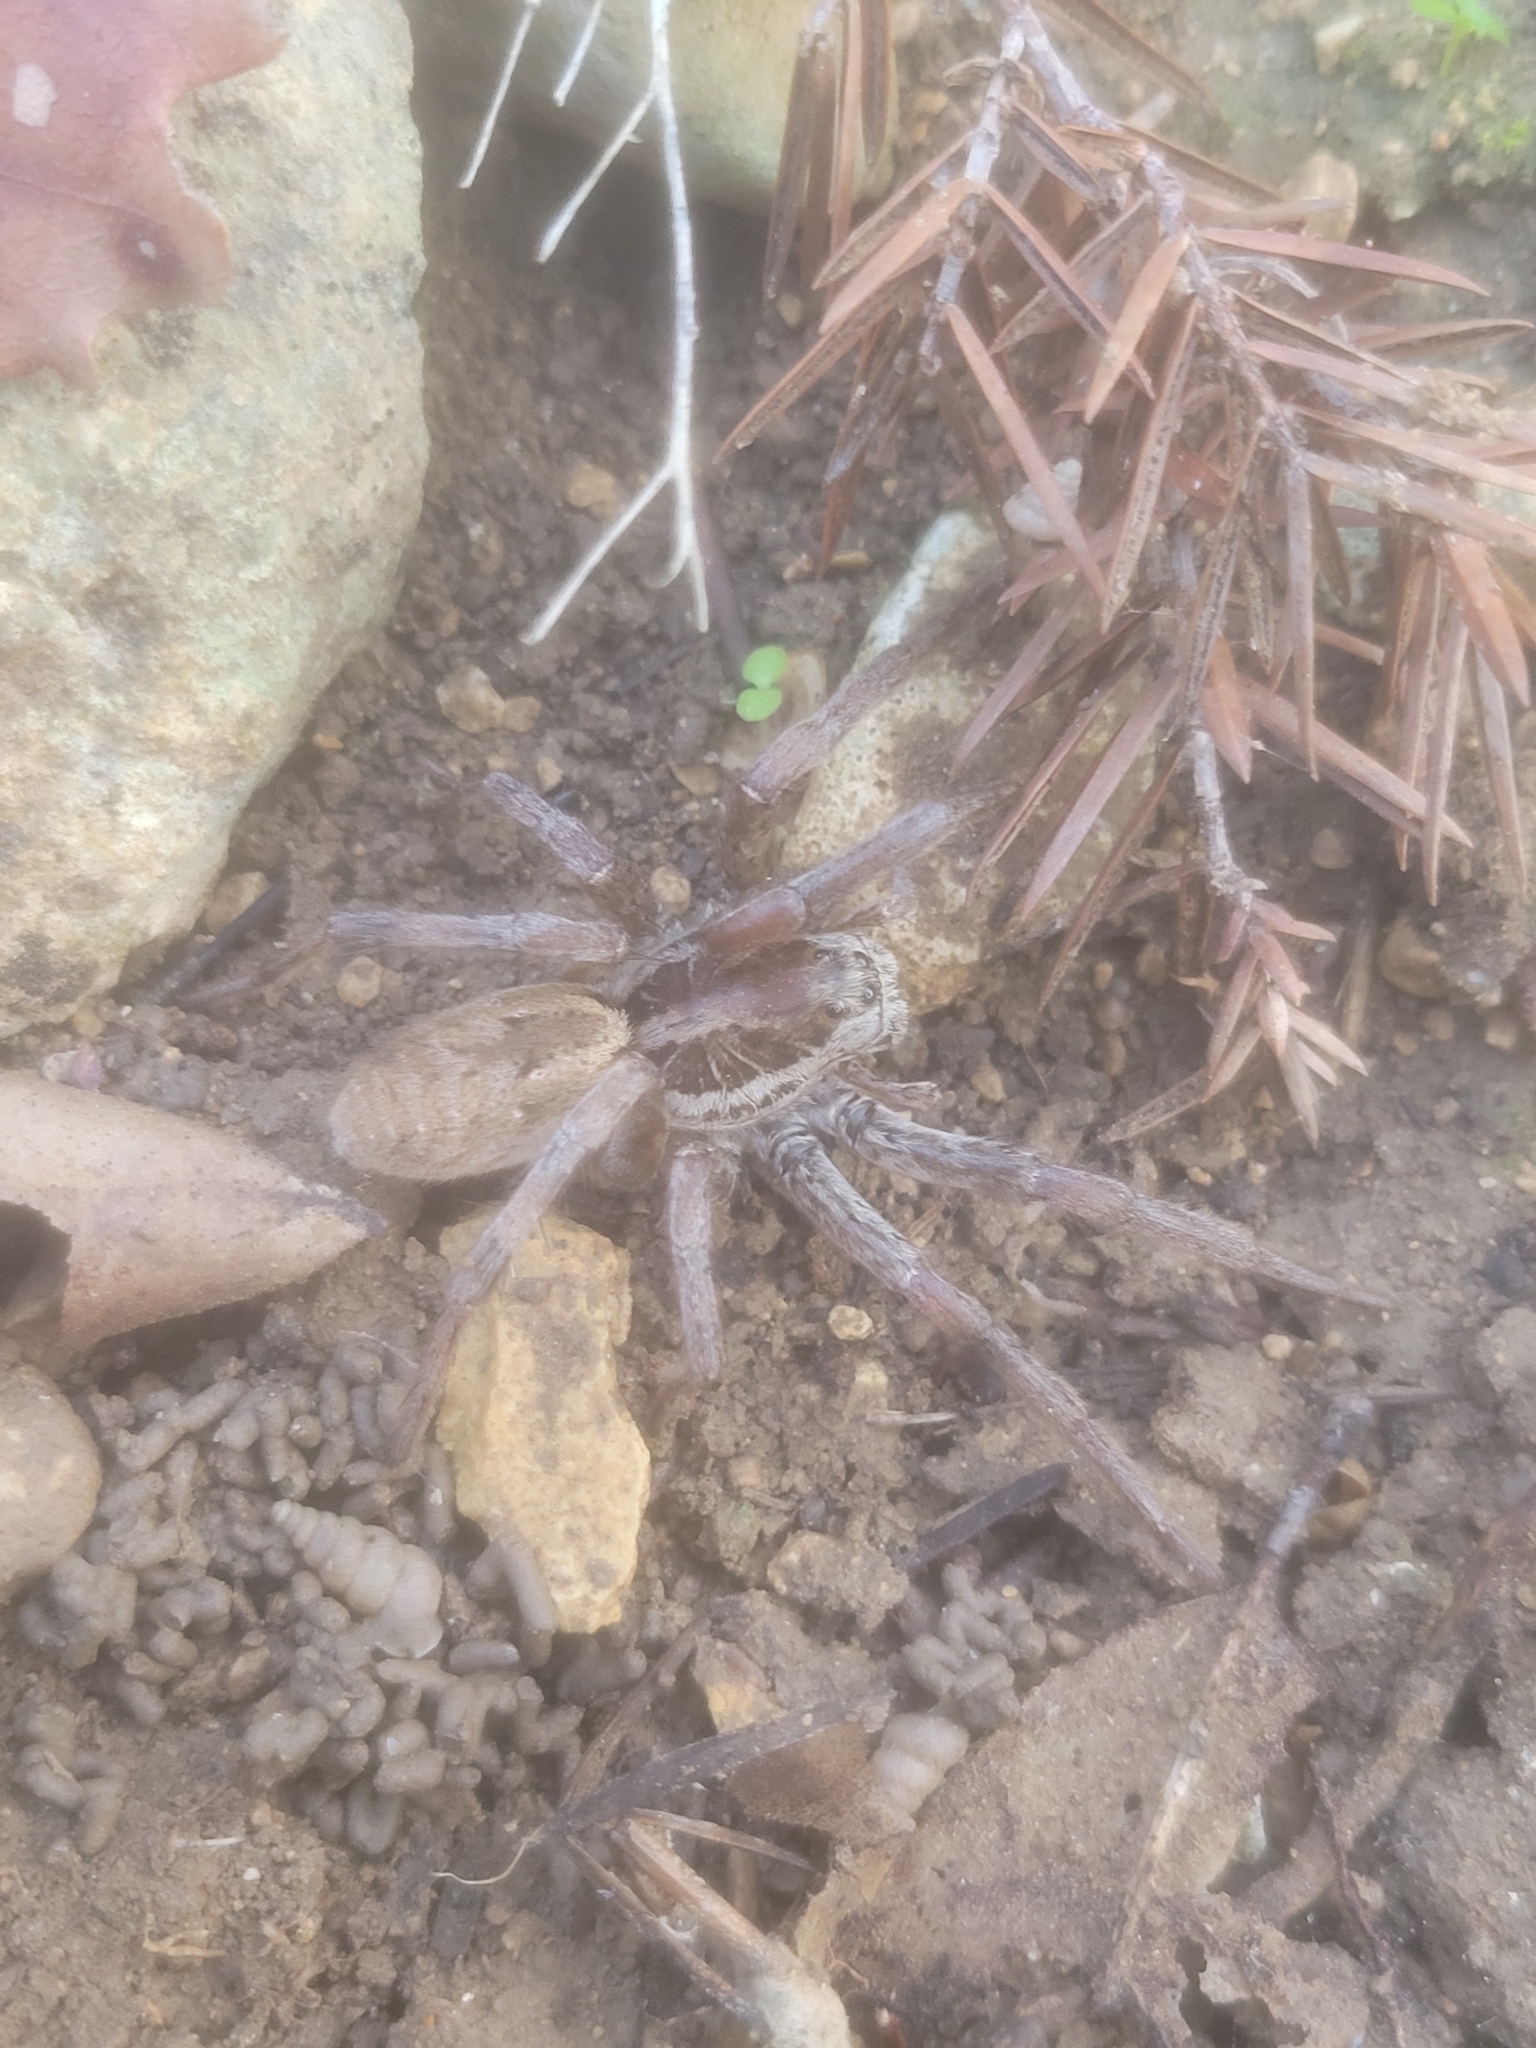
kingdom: Animalia
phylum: Arthropoda
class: Arachnida
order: Araneae
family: Lycosidae
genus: Hogna
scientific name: Hogna radiata
